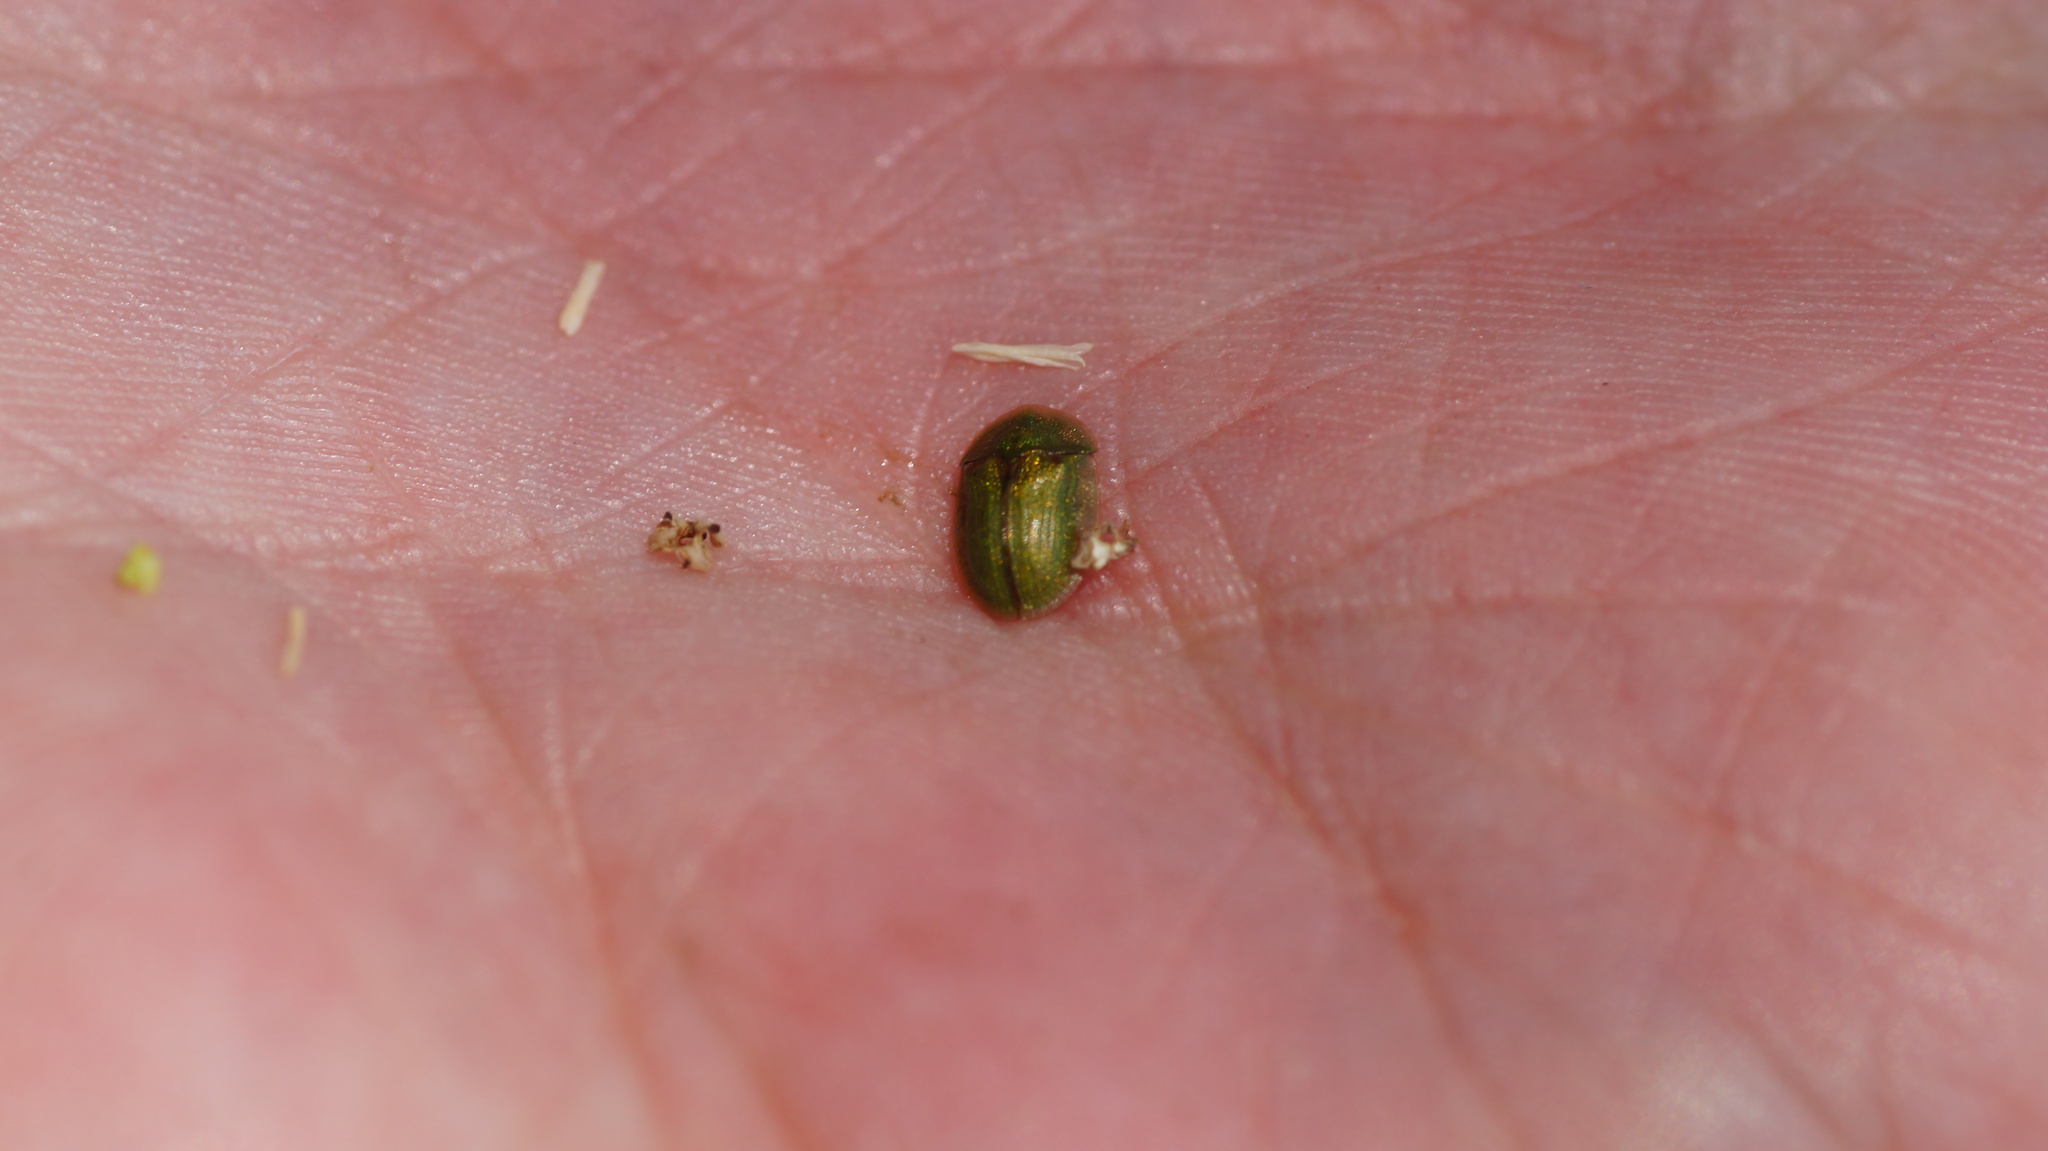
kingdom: Animalia
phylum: Arthropoda
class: Insecta
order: Coleoptera
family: Chrysomelidae
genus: Cassida
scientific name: Cassida prasina
